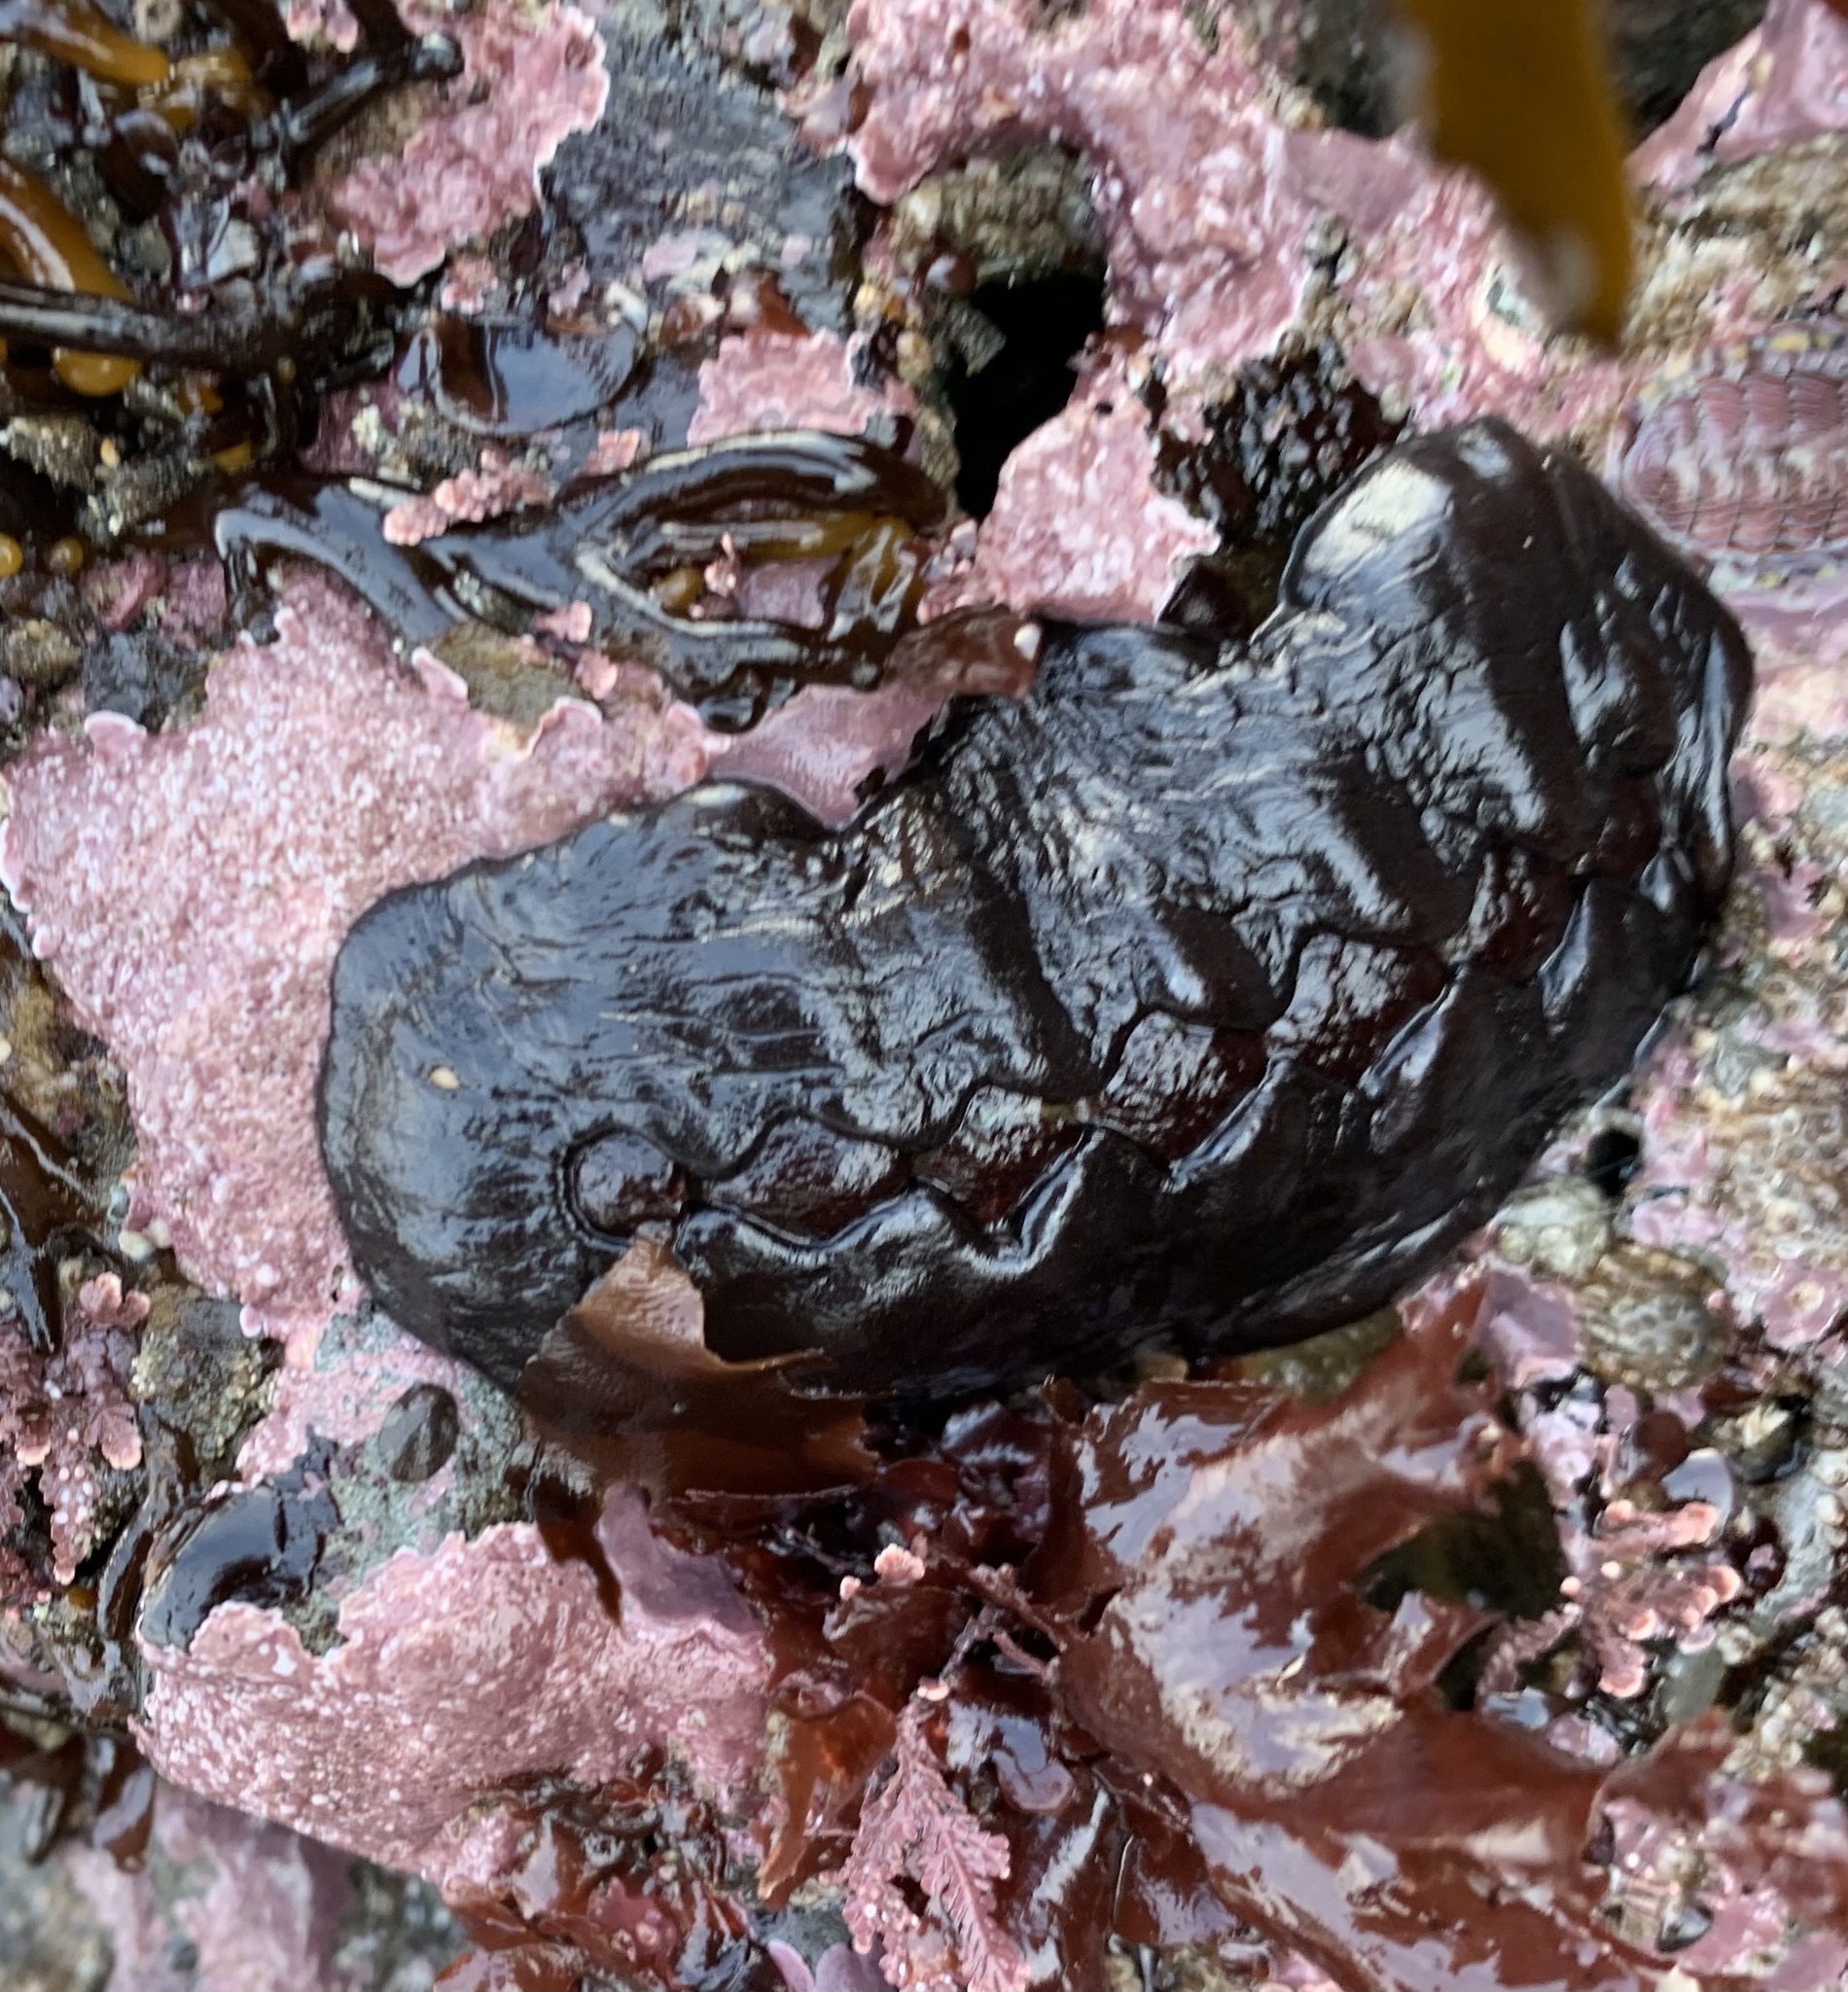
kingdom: Animalia
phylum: Mollusca
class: Polyplacophora
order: Chitonida
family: Mopaliidae
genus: Katharina
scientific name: Katharina tunicata
